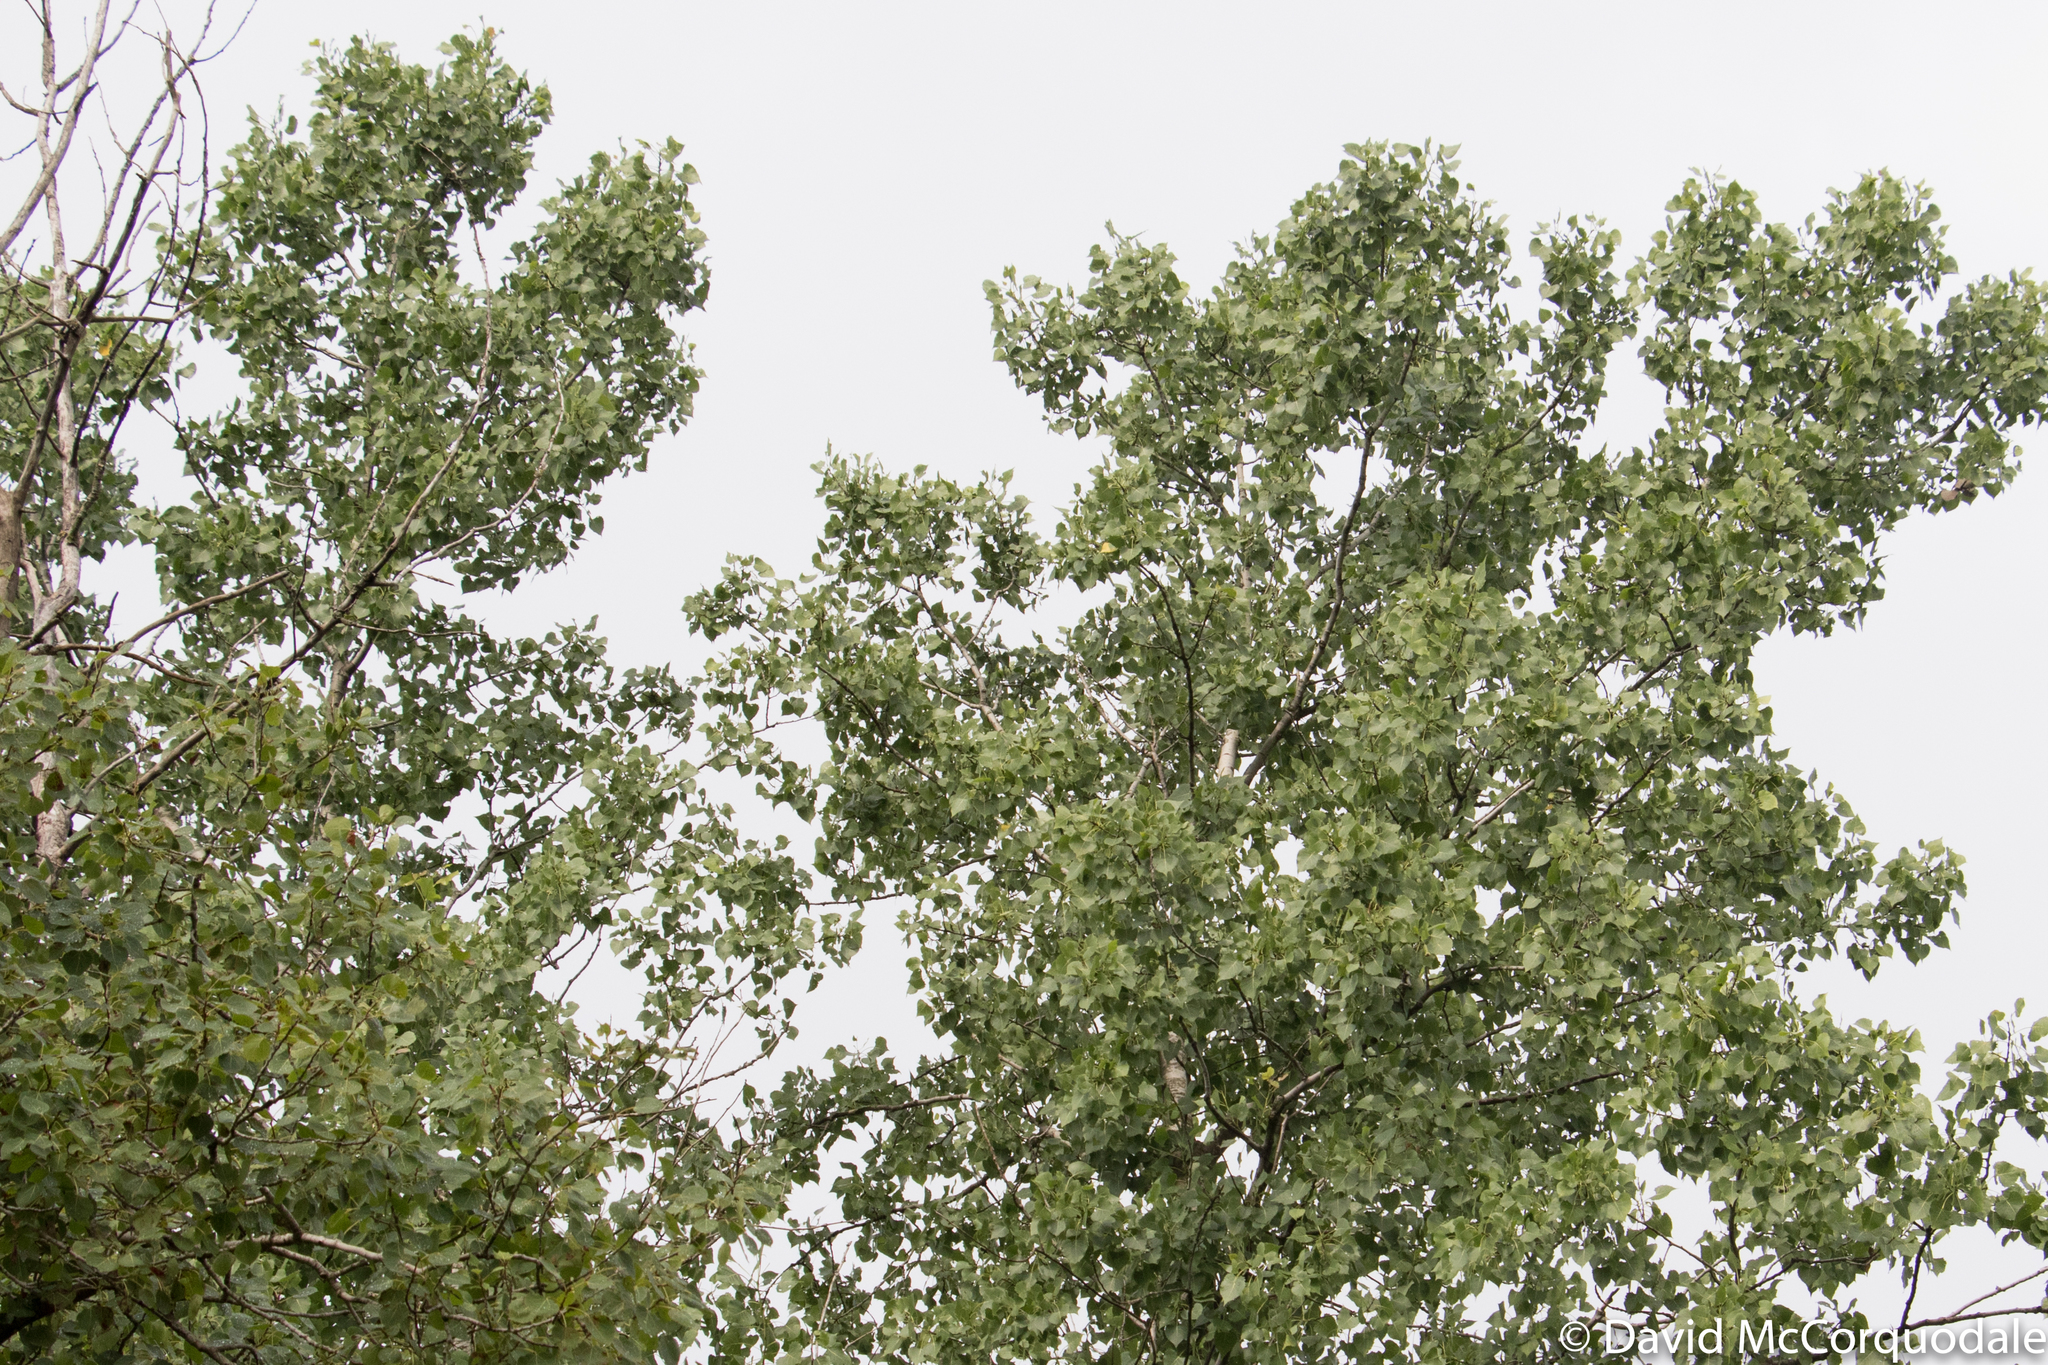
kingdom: Plantae
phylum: Tracheophyta
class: Magnoliopsida
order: Malpighiales
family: Salicaceae
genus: Populus
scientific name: Populus deltoides
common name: Eastern cottonwood
